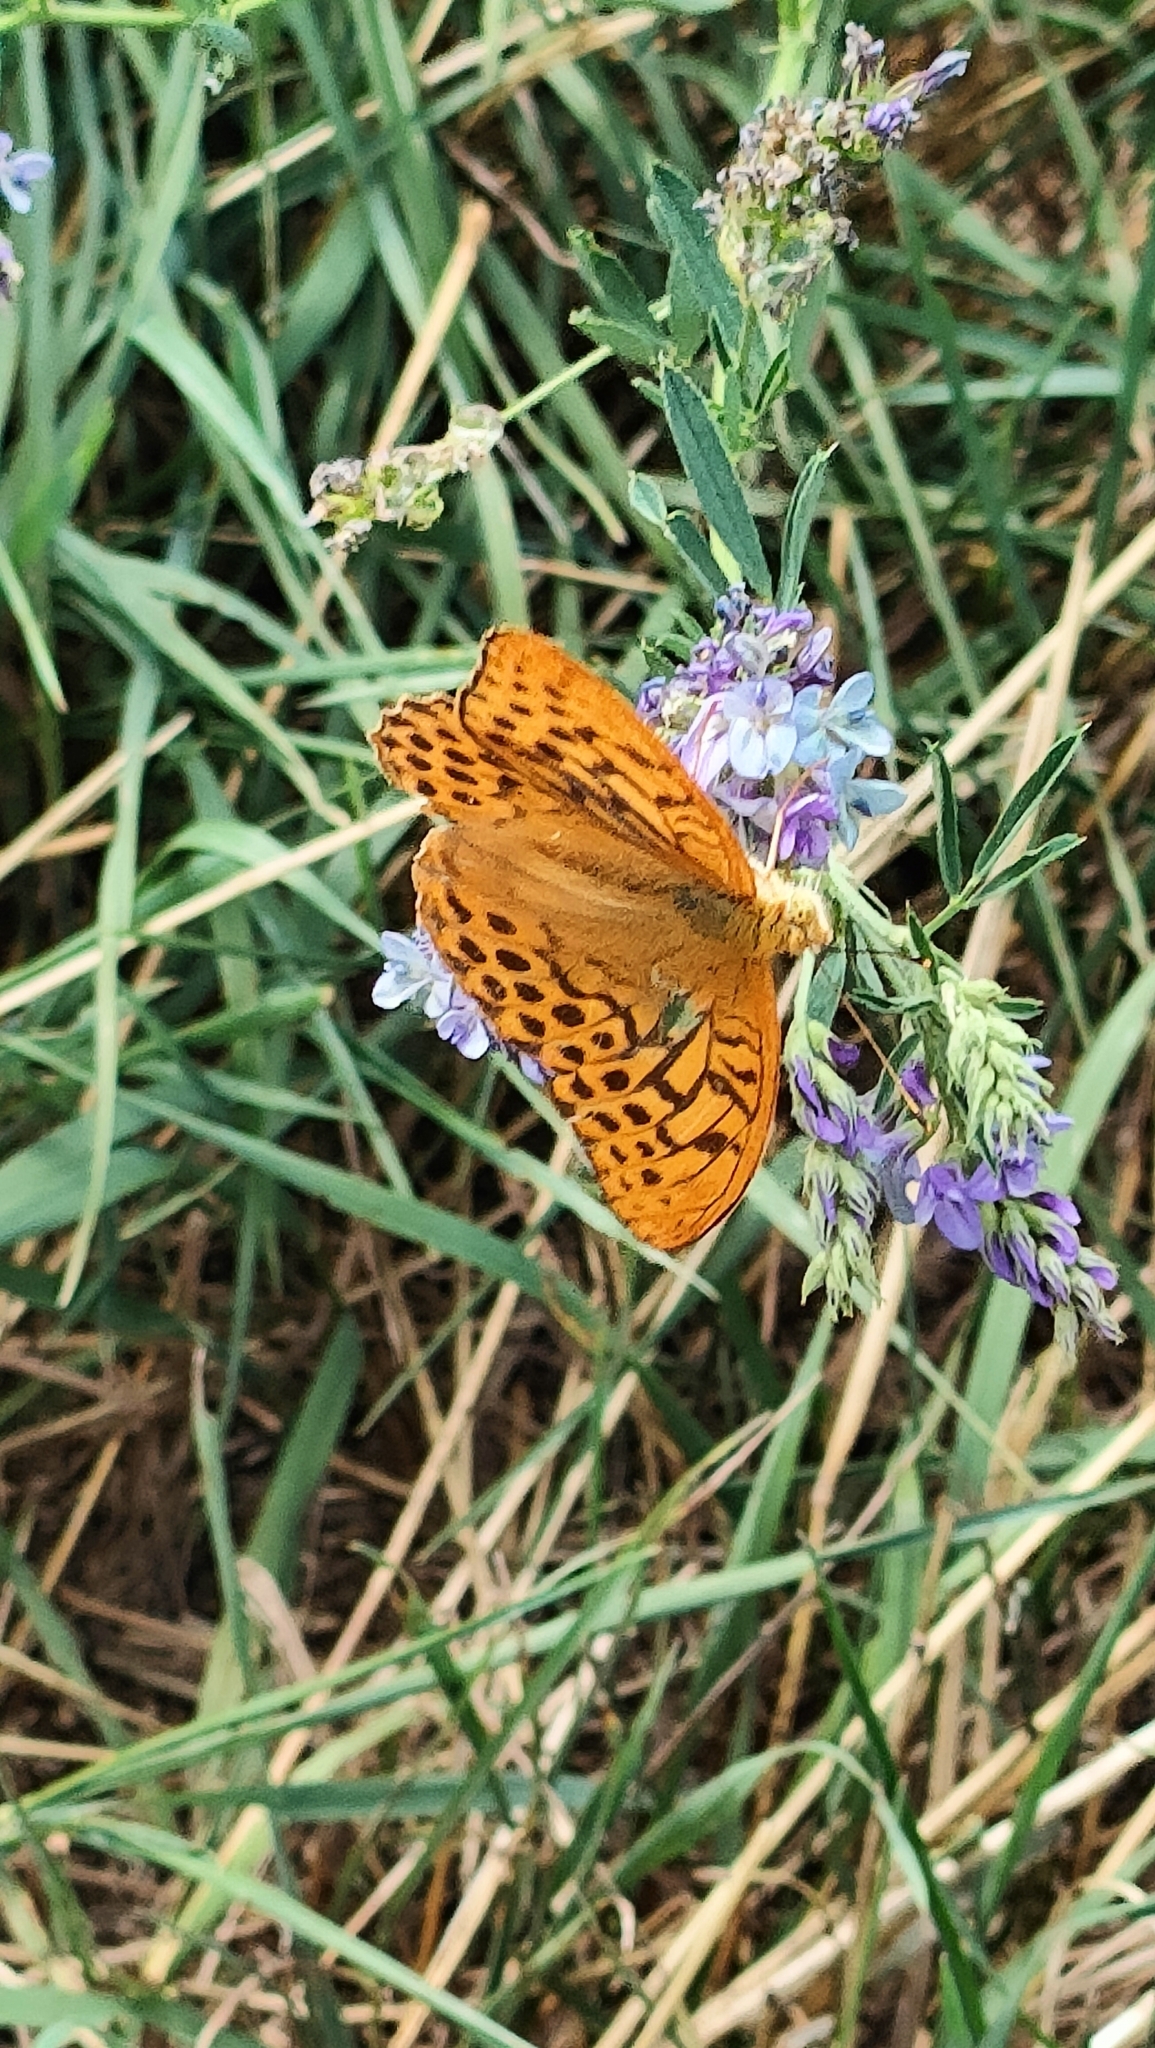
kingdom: Animalia
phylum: Arthropoda
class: Insecta
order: Lepidoptera
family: Nymphalidae
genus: Argynnis
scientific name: Argynnis paphia
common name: Silver-washed fritillary
